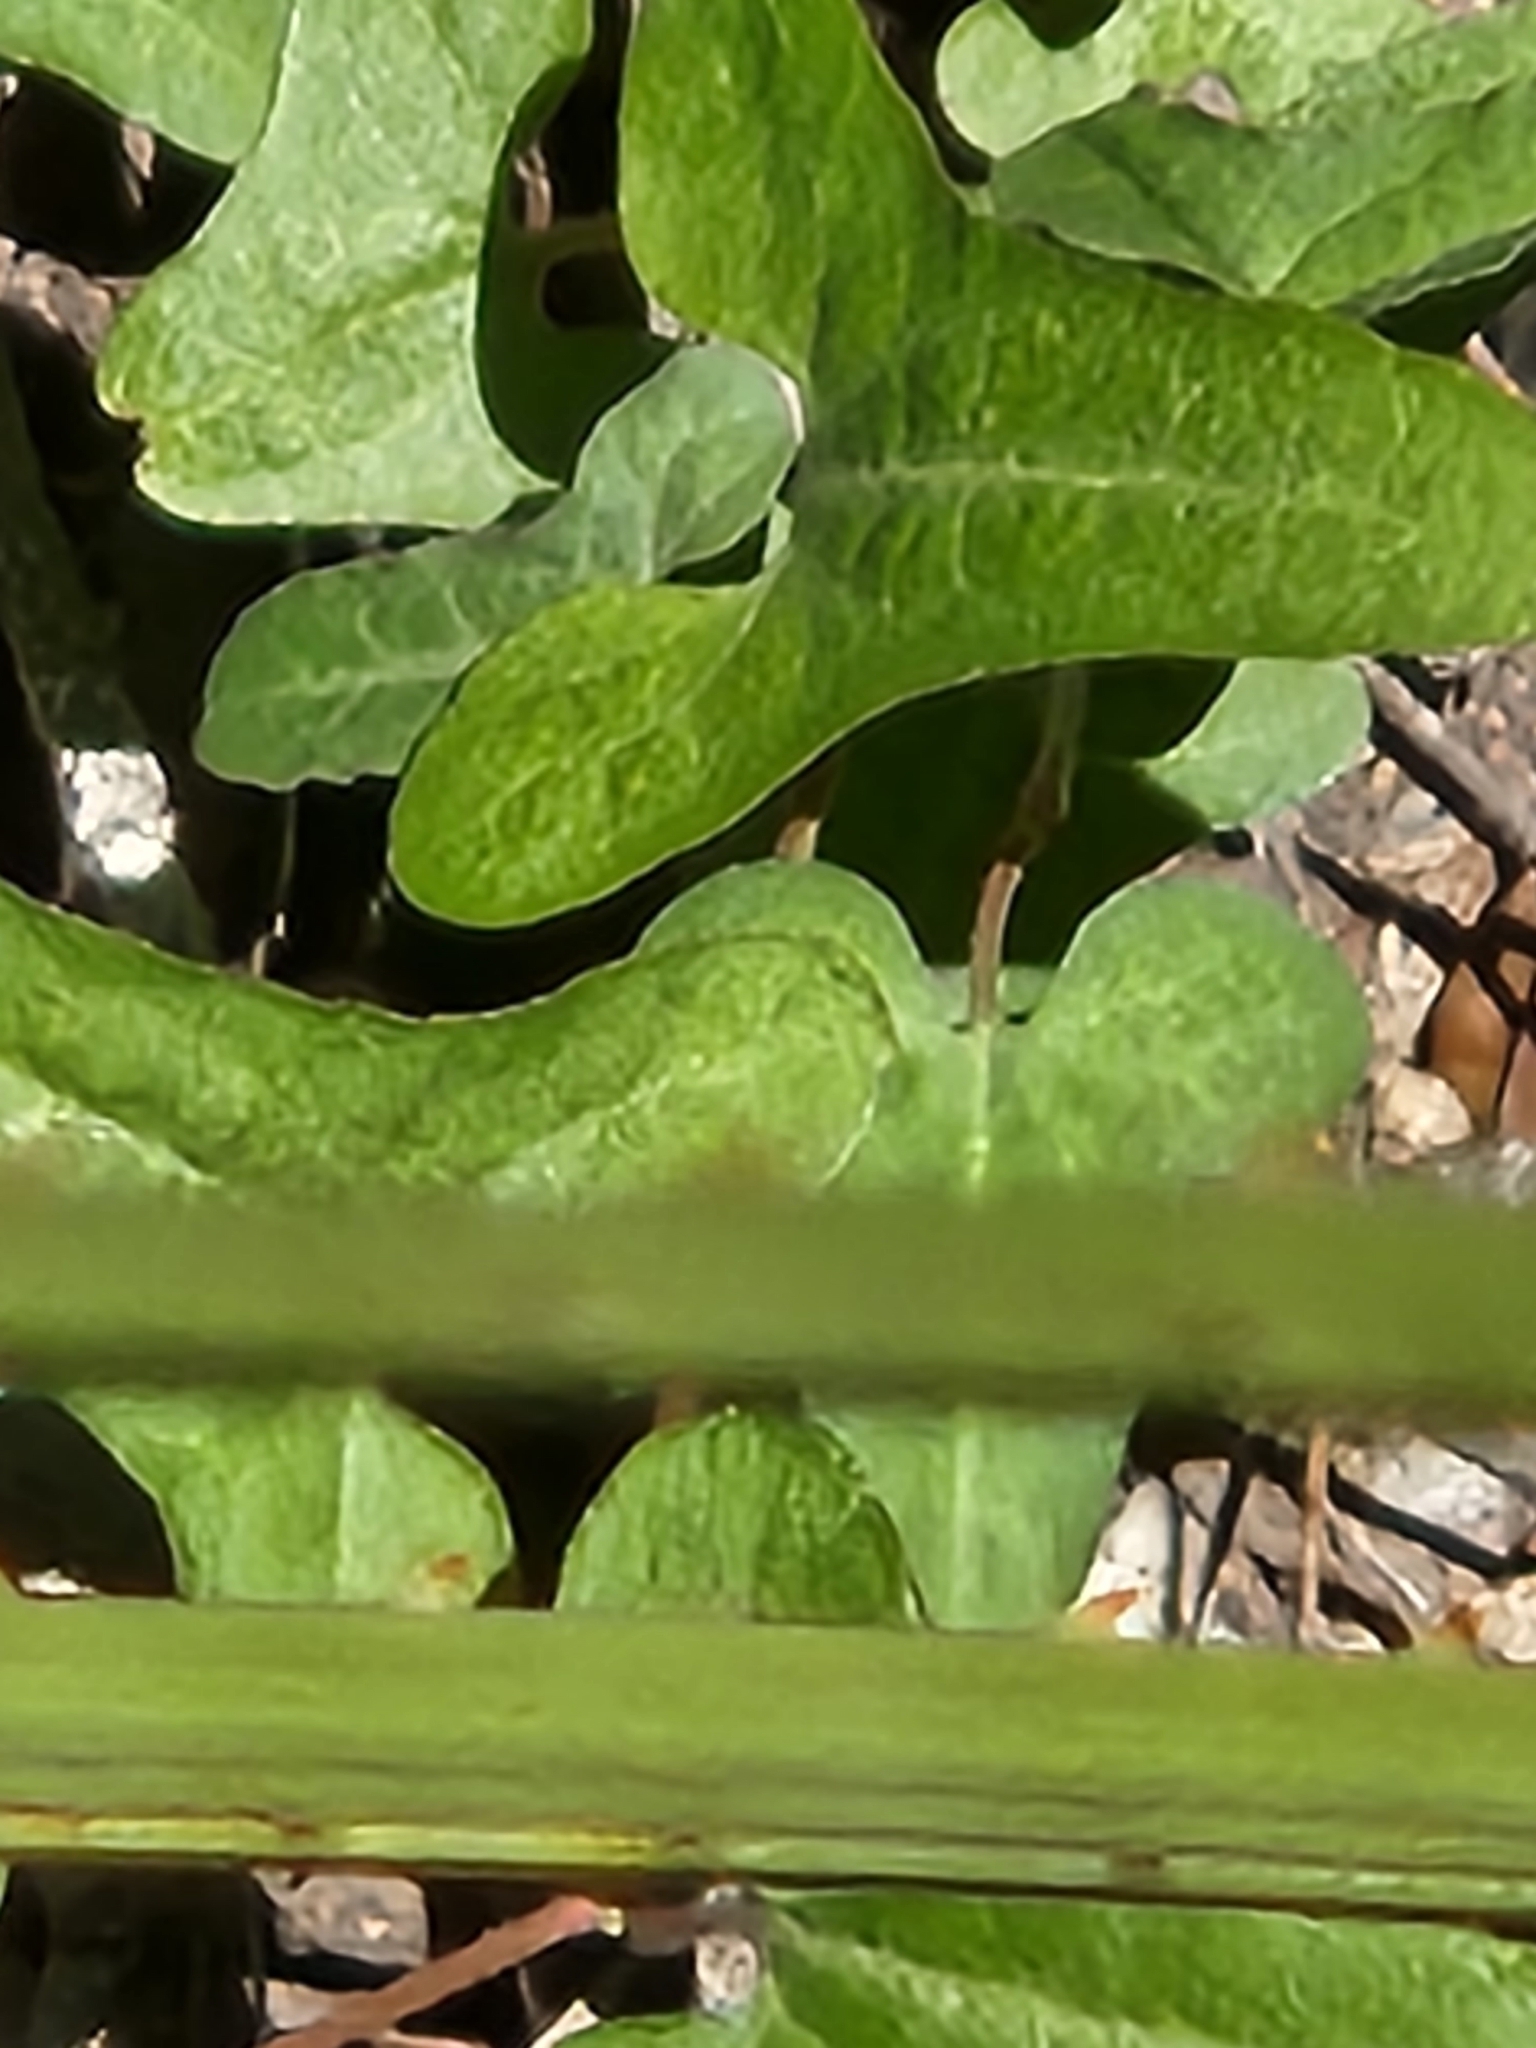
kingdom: Plantae
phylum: Tracheophyta
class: Magnoliopsida
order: Piperales
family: Aristolochiaceae
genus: Aristolochia
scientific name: Aristolochia coryi
